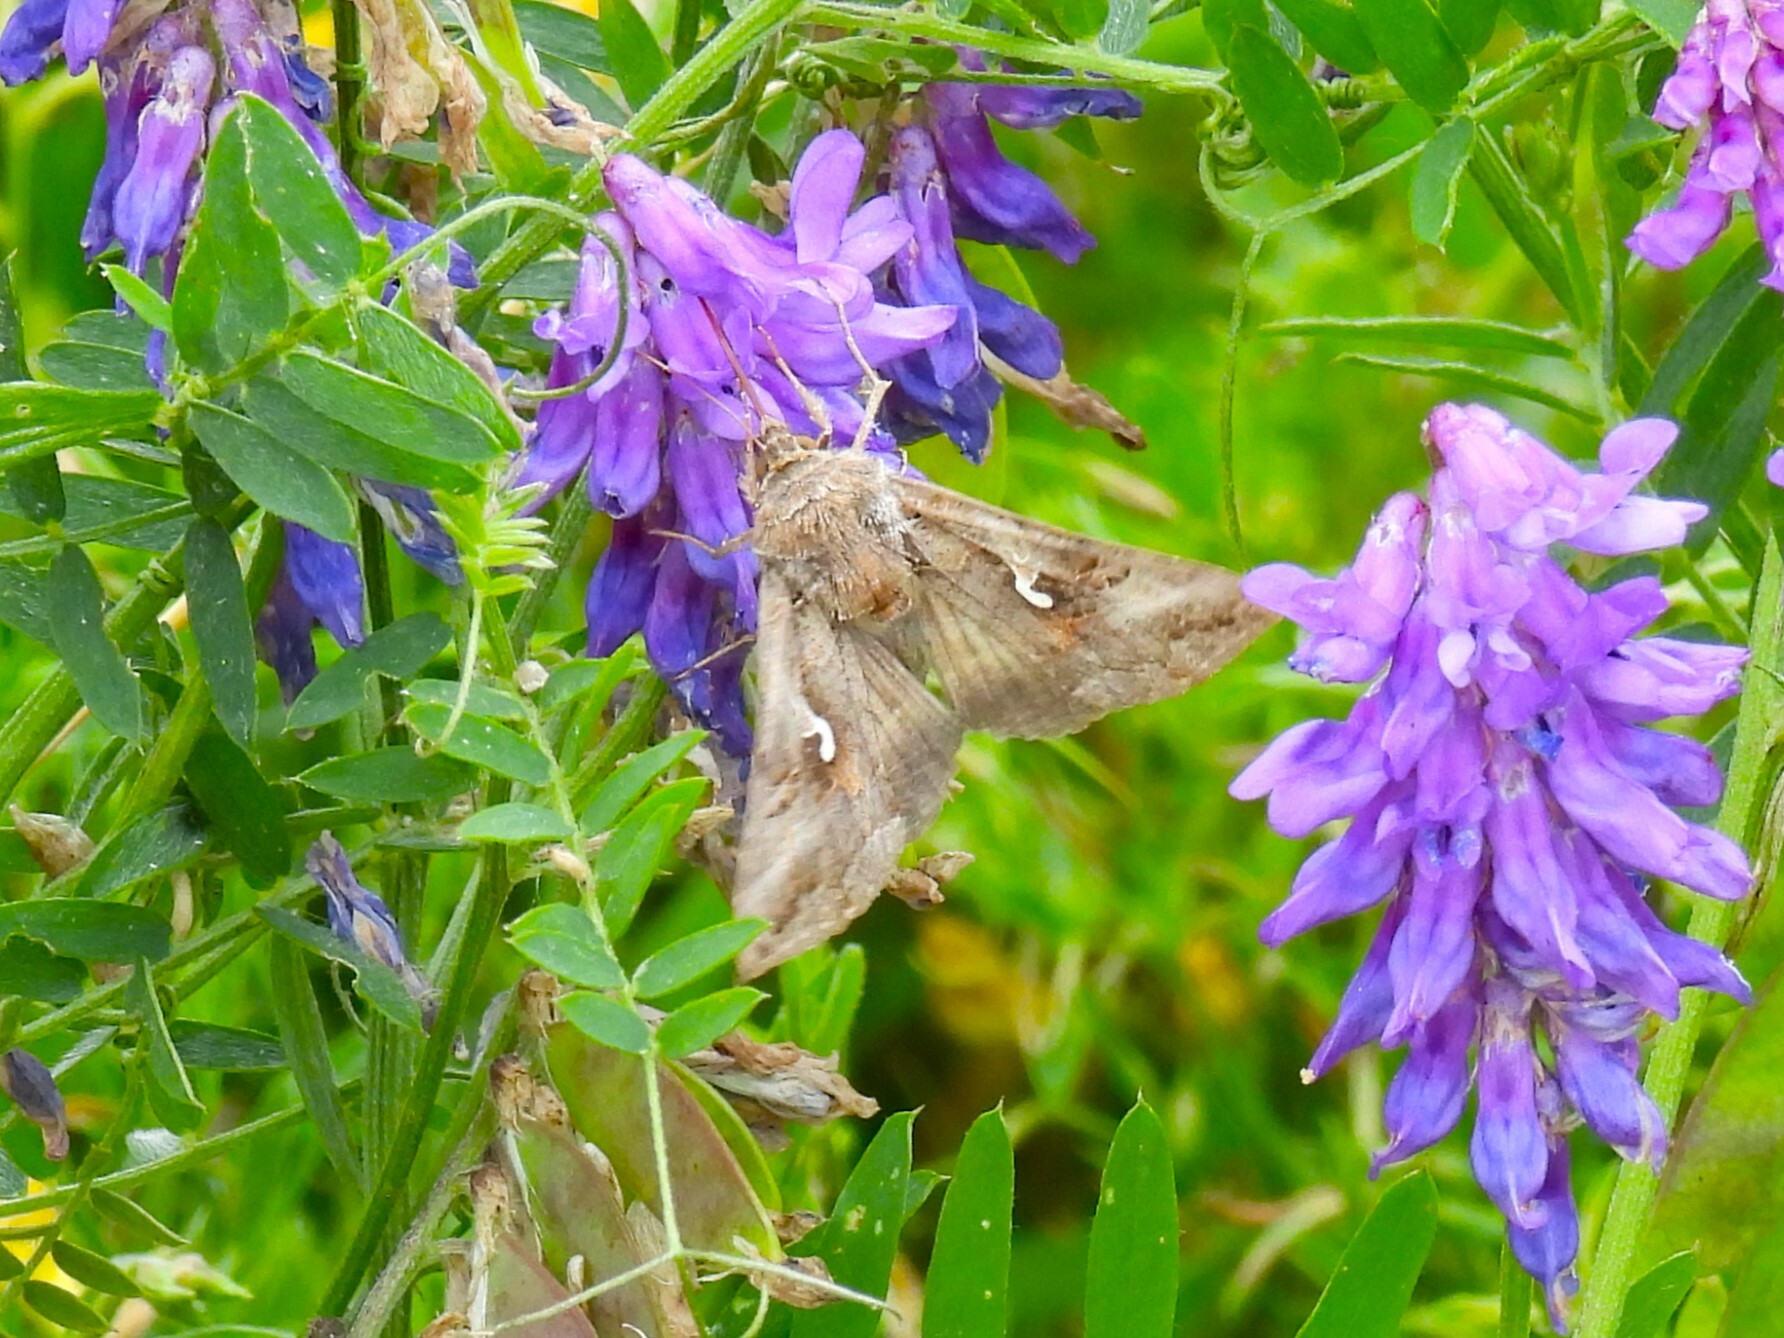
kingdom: Animalia
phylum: Arthropoda
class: Insecta
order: Lepidoptera
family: Noctuidae
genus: Autographa
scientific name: Autographa gamma
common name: Silver y
